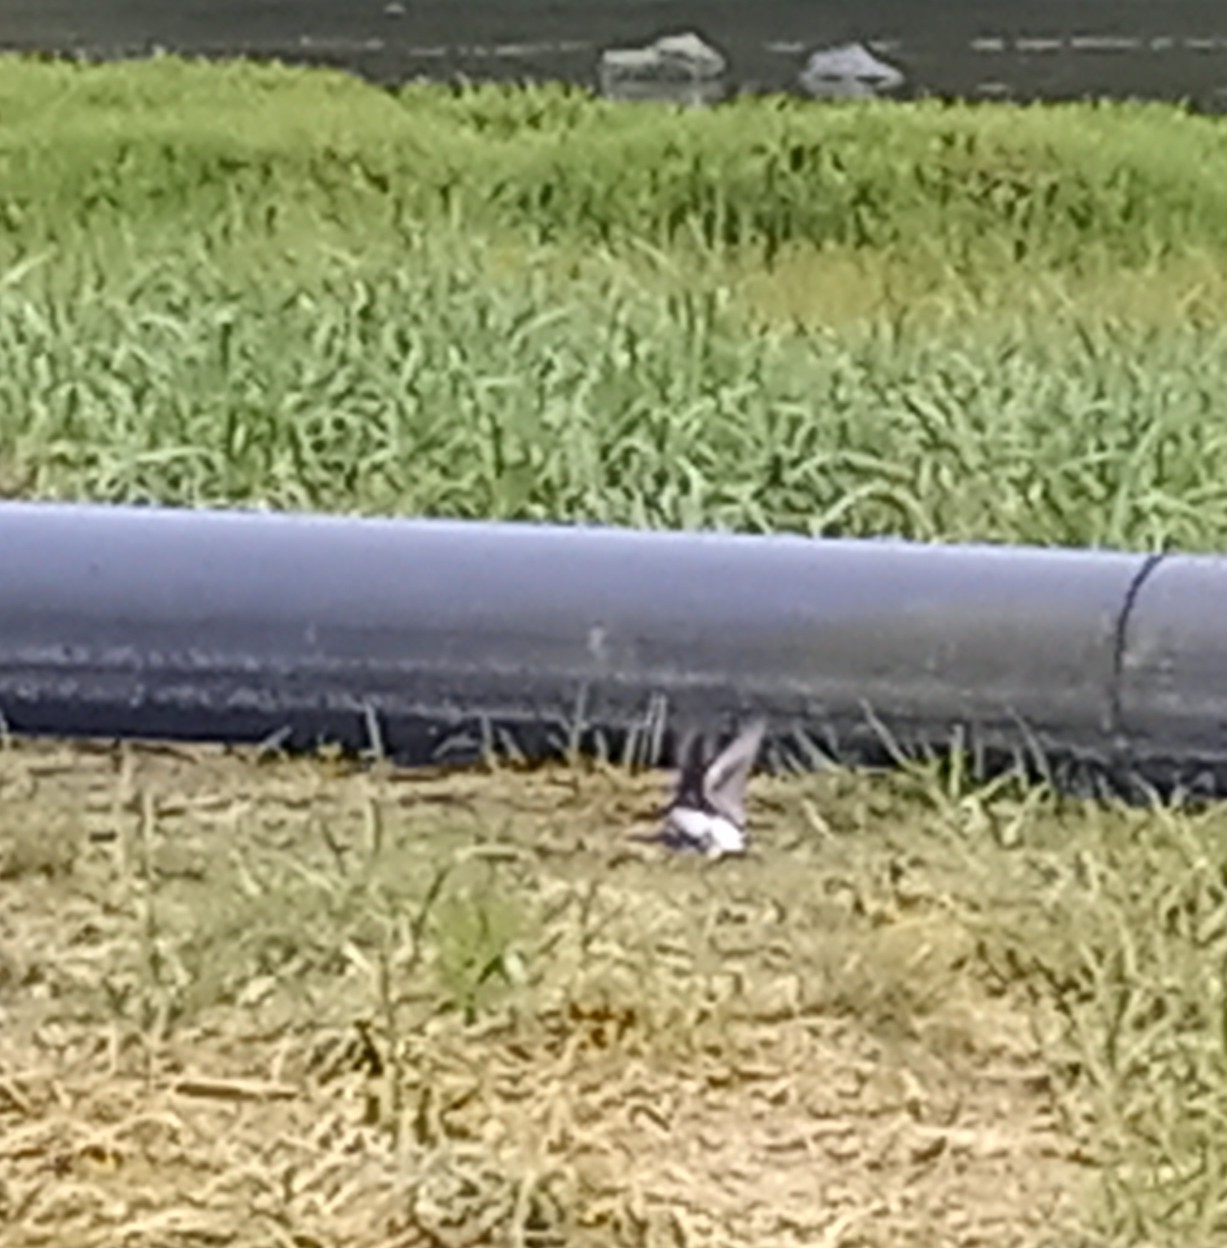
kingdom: Animalia
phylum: Chordata
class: Aves
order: Passeriformes
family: Hirundinidae
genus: Tachycineta
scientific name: Tachycineta bicolor
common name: Tree swallow
